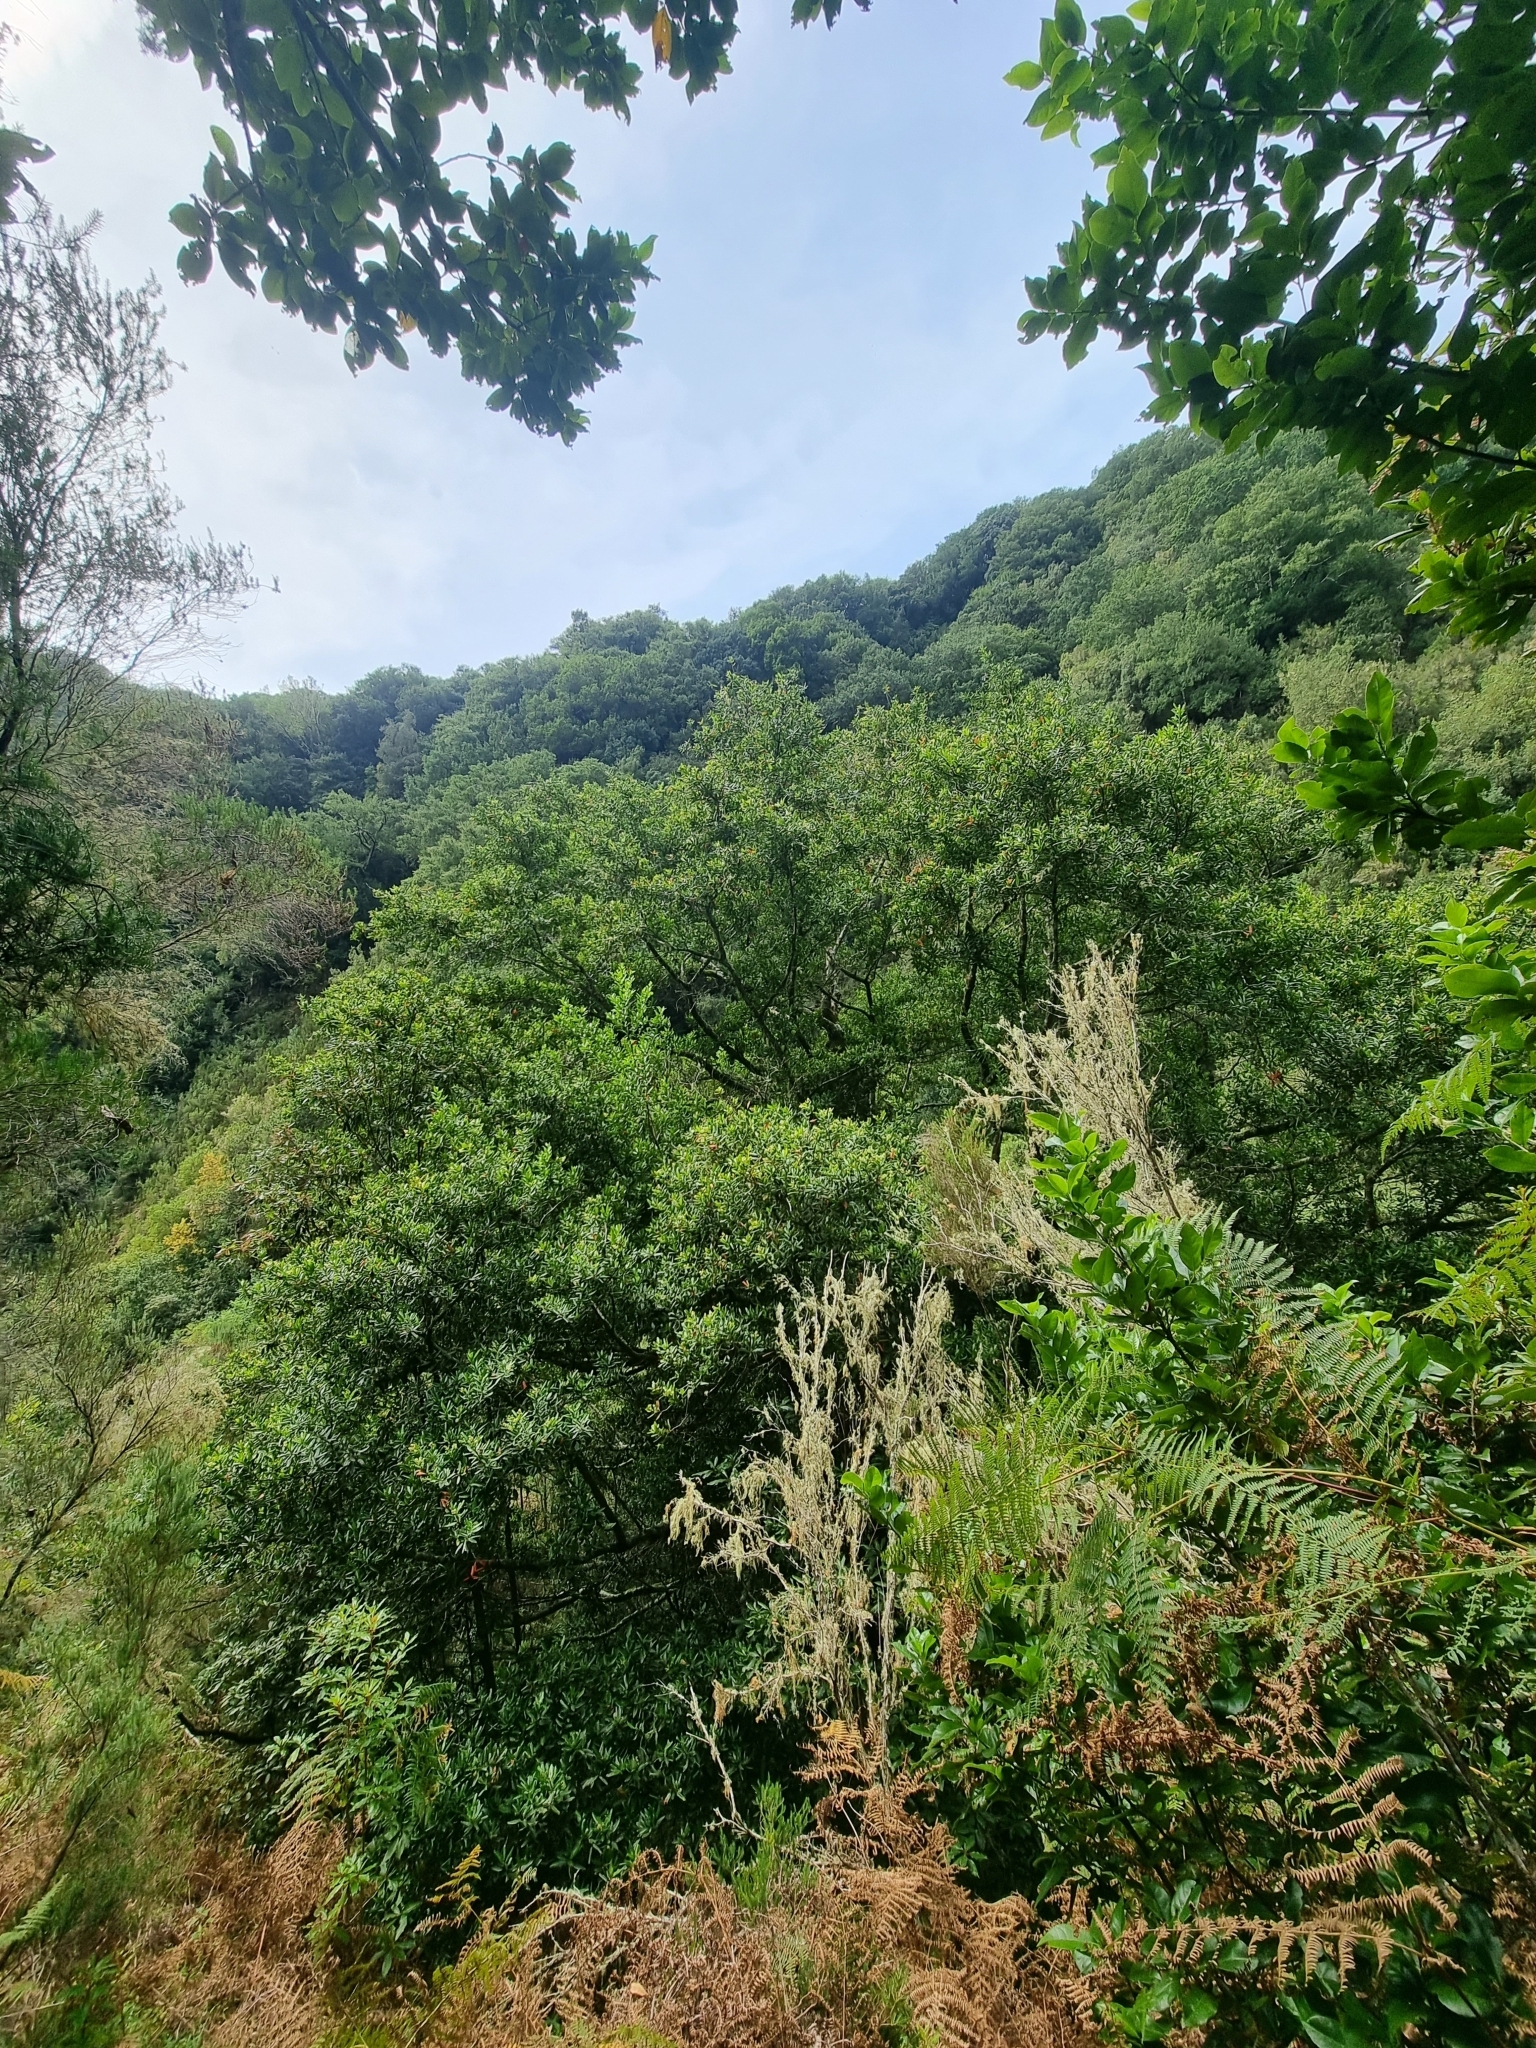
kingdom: Plantae
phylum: Tracheophyta
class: Magnoliopsida
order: Laurales
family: Lauraceae
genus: Mespilodaphne
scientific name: Mespilodaphne foetens
